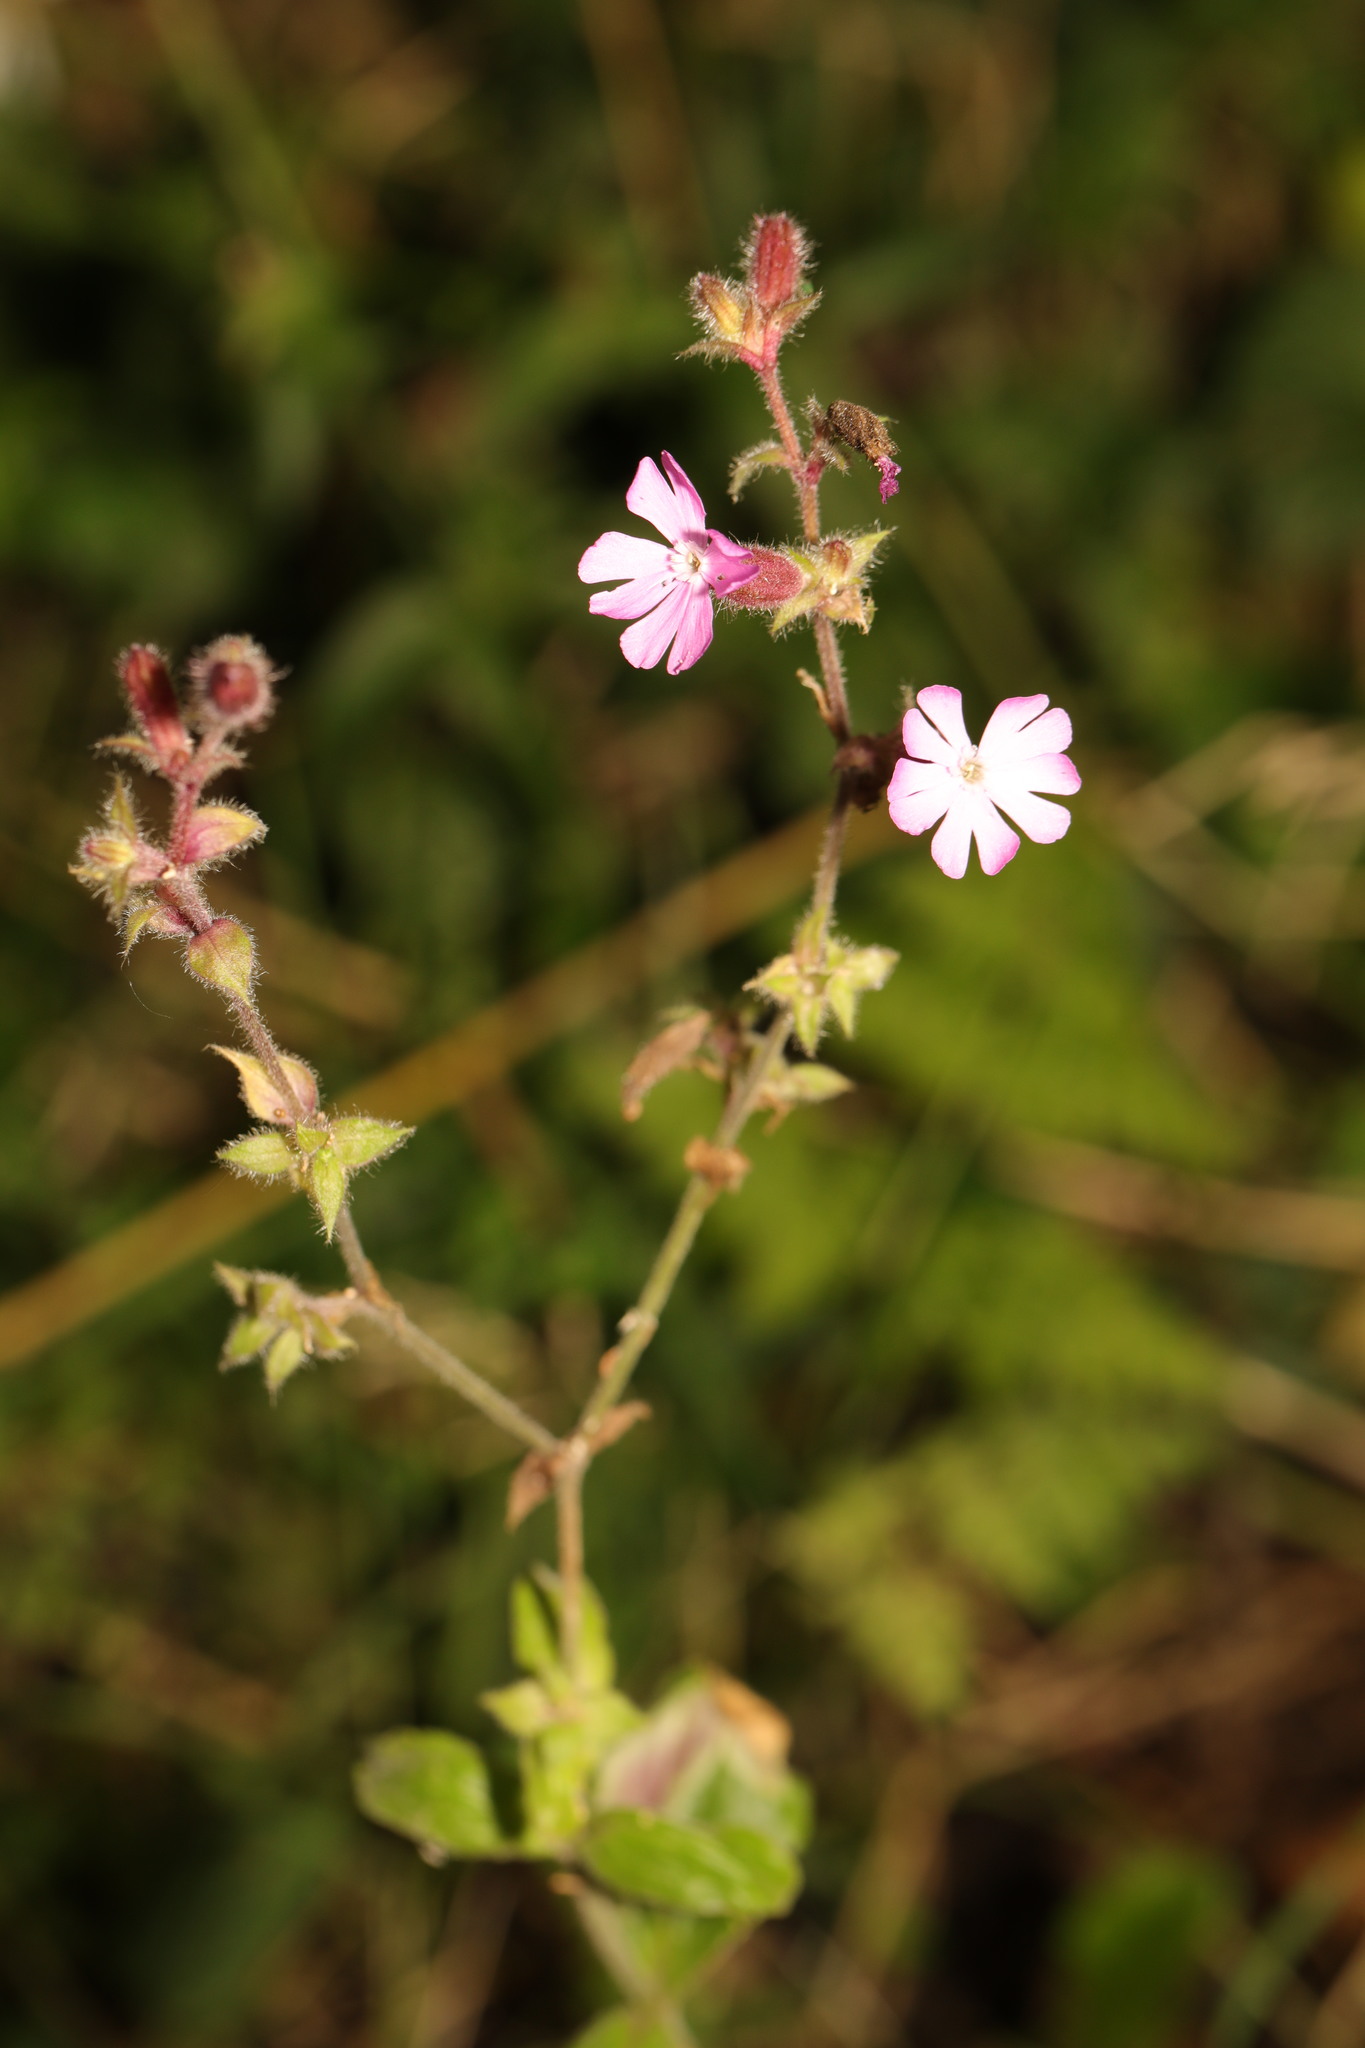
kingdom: Plantae
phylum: Tracheophyta
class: Magnoliopsida
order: Caryophyllales
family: Caryophyllaceae
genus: Silene
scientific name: Silene dioica
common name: Red campion
